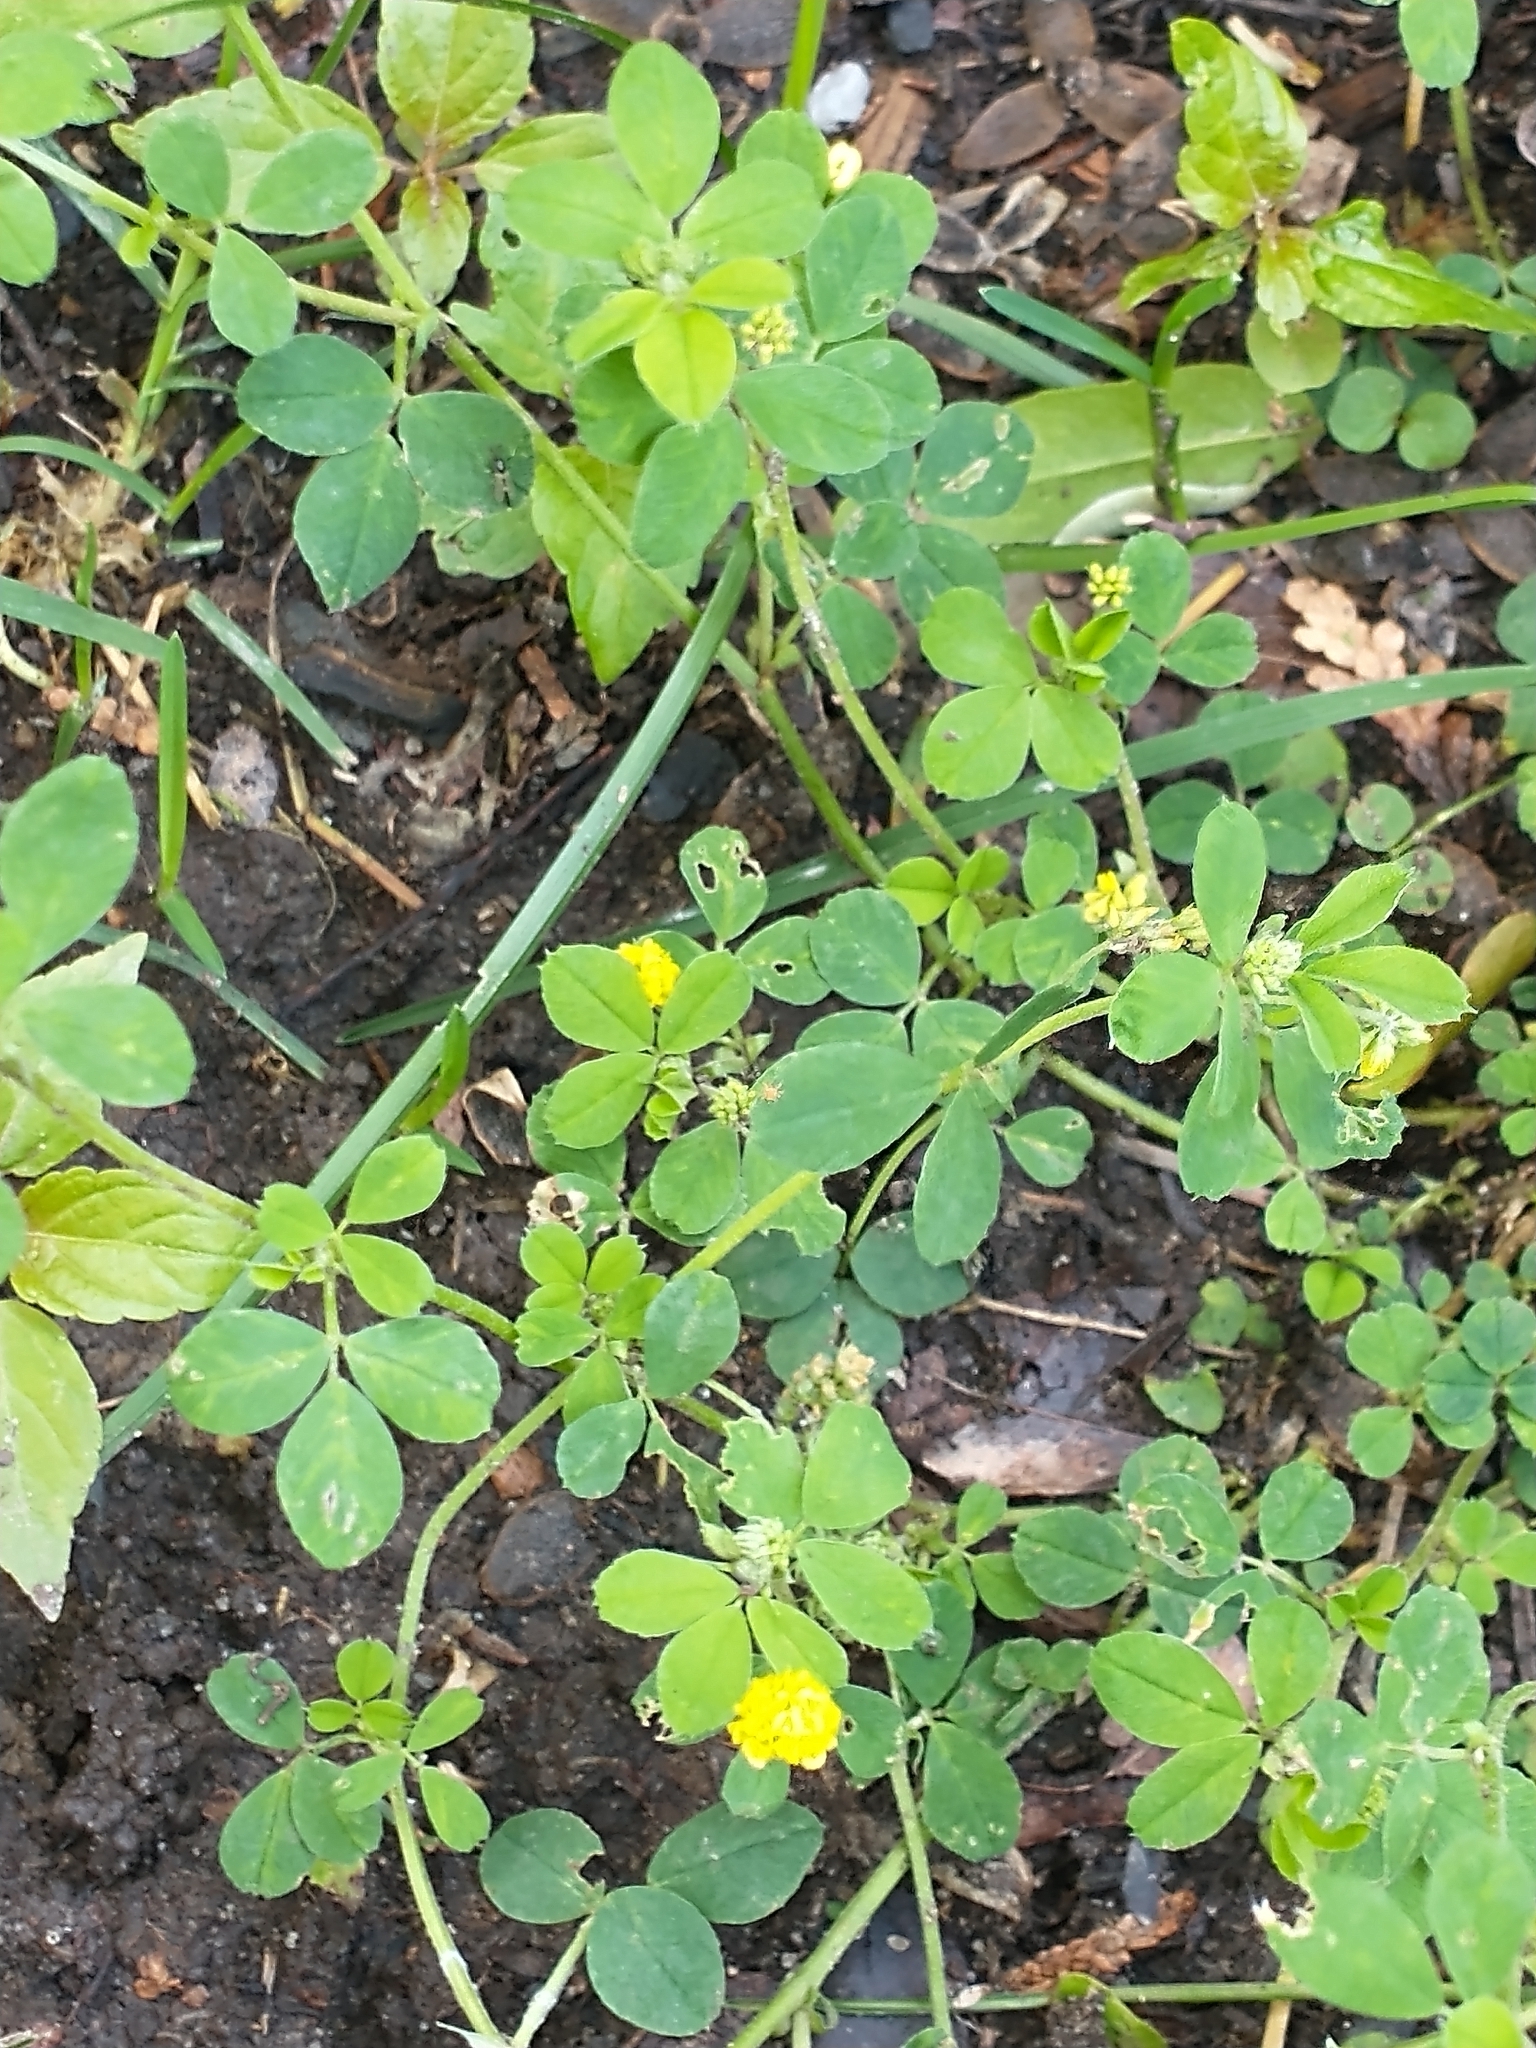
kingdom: Plantae
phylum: Tracheophyta
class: Magnoliopsida
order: Fabales
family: Fabaceae
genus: Medicago
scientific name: Medicago lupulina
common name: Black medick
